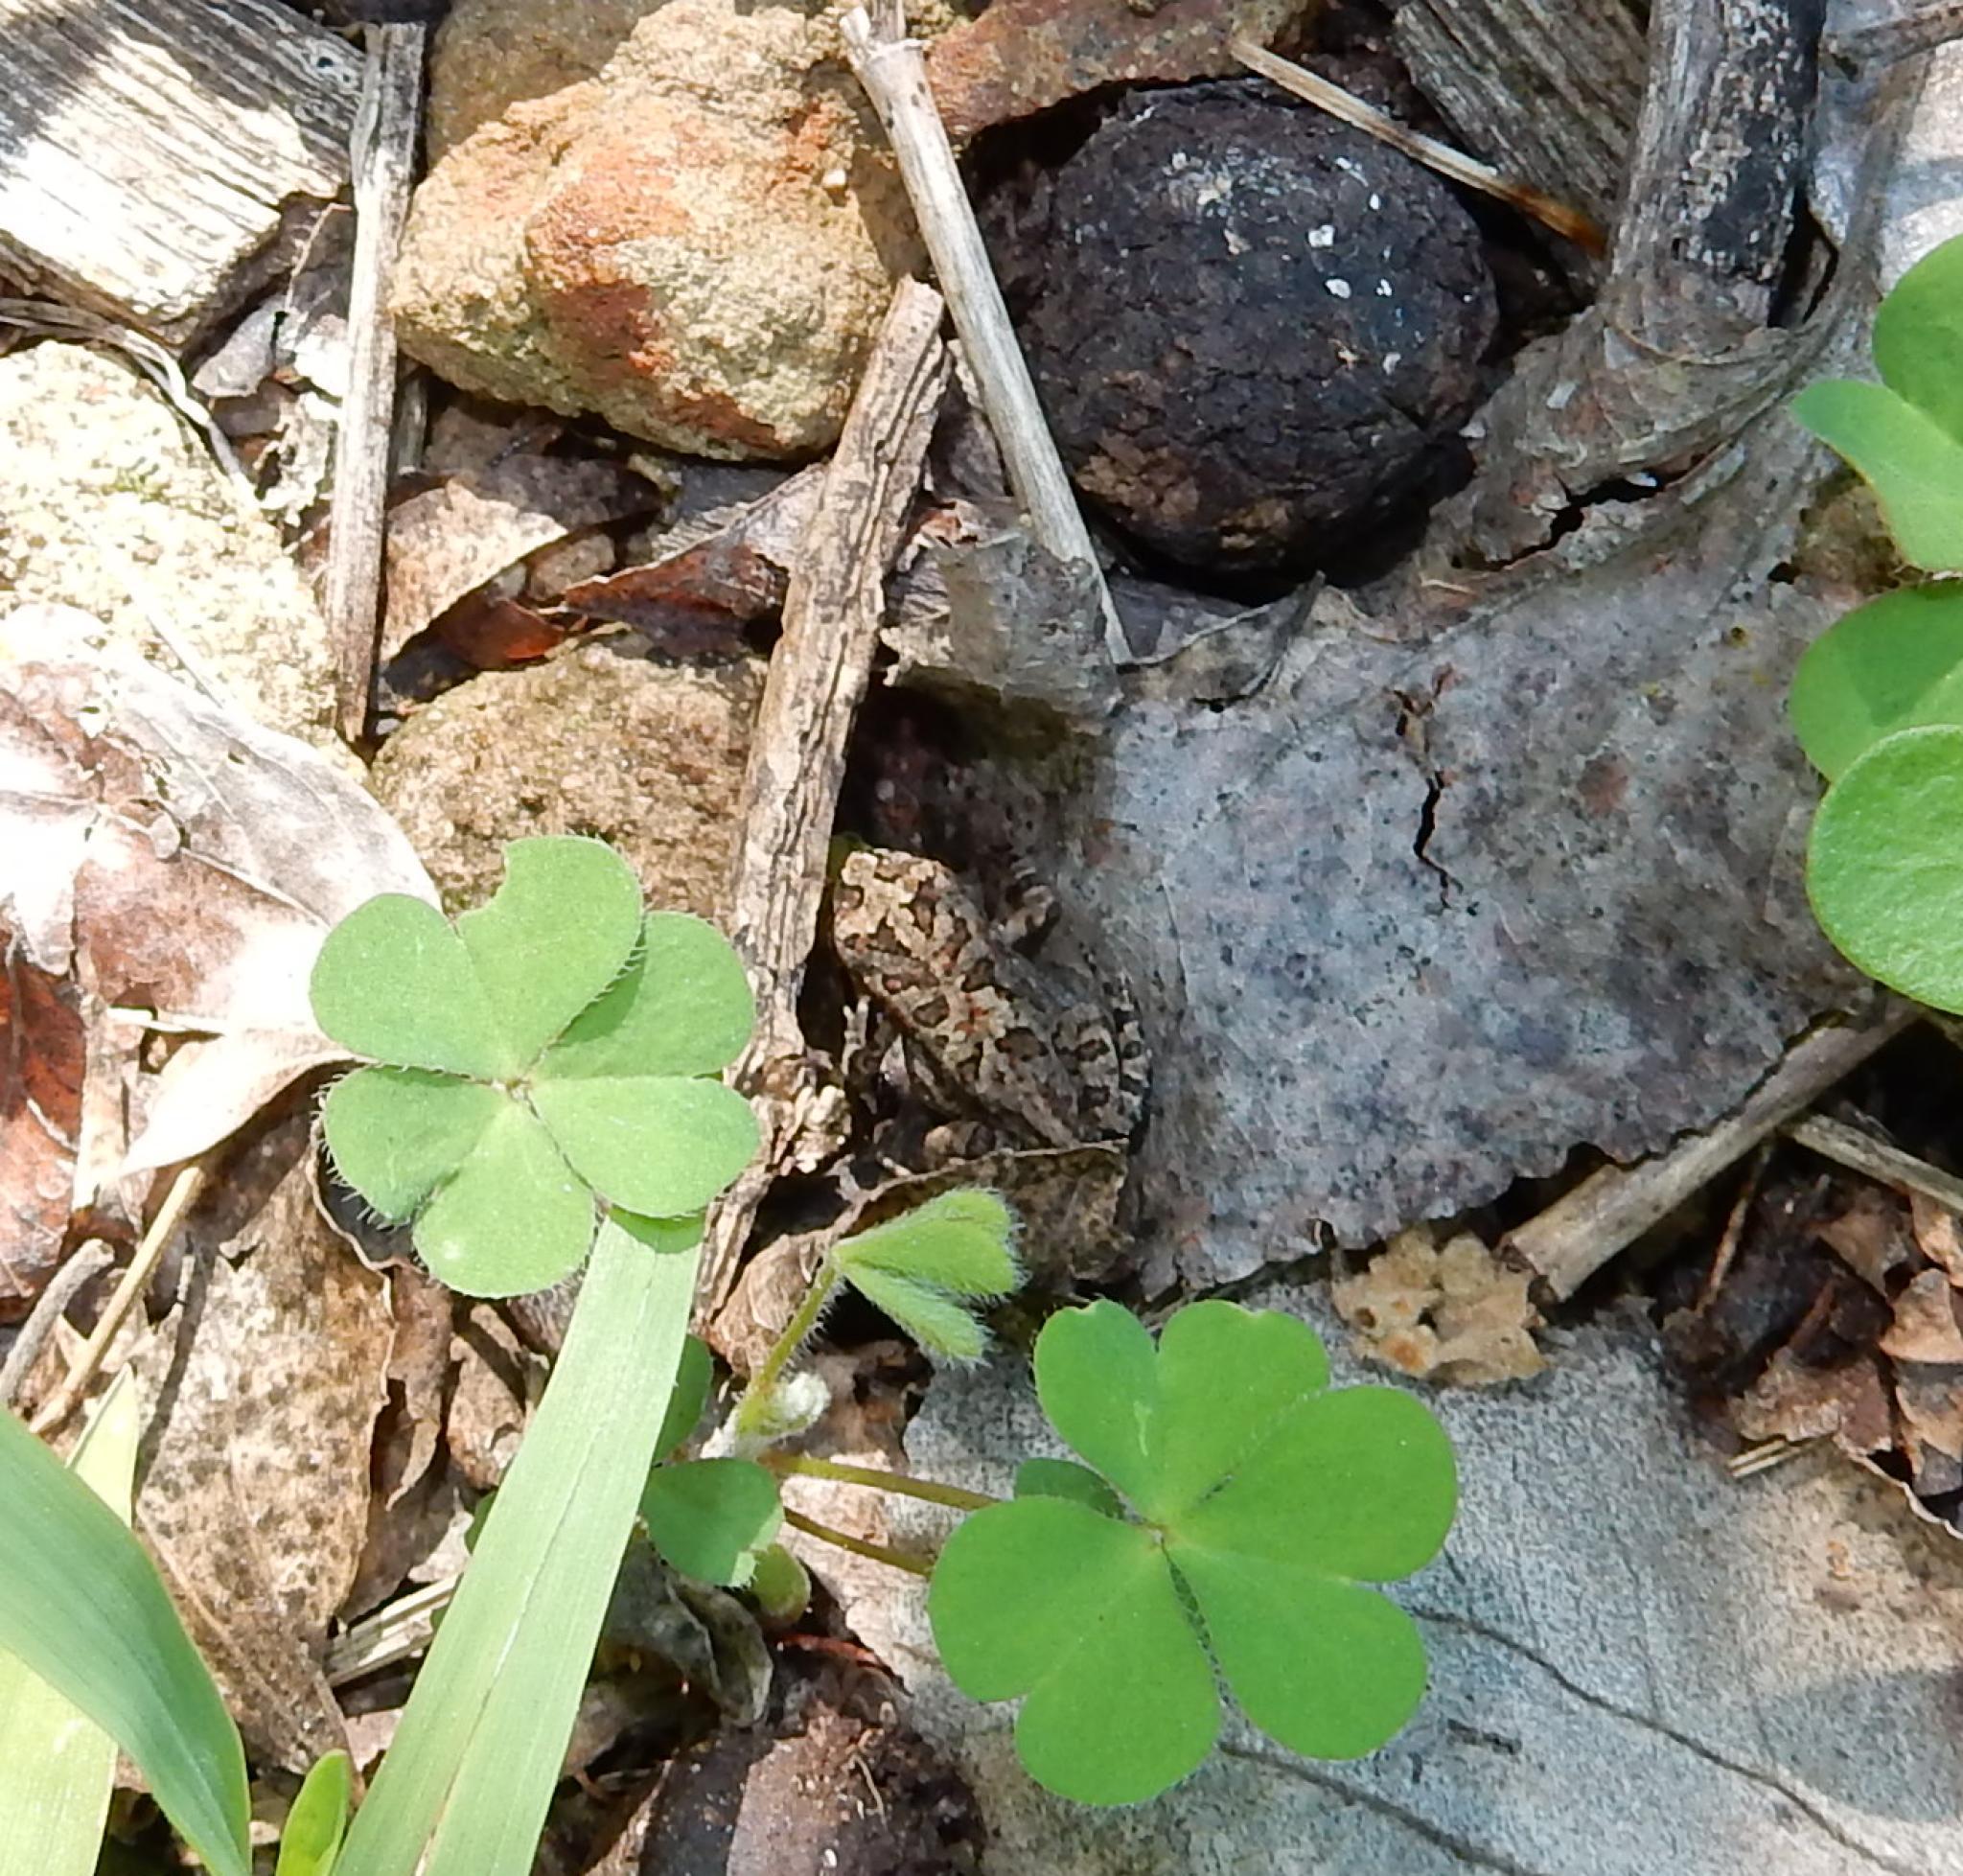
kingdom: Animalia
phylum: Chordata
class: Amphibia
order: Anura
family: Bufonidae
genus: Sclerophrys
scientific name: Sclerophrys gutturalis
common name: African common toad
